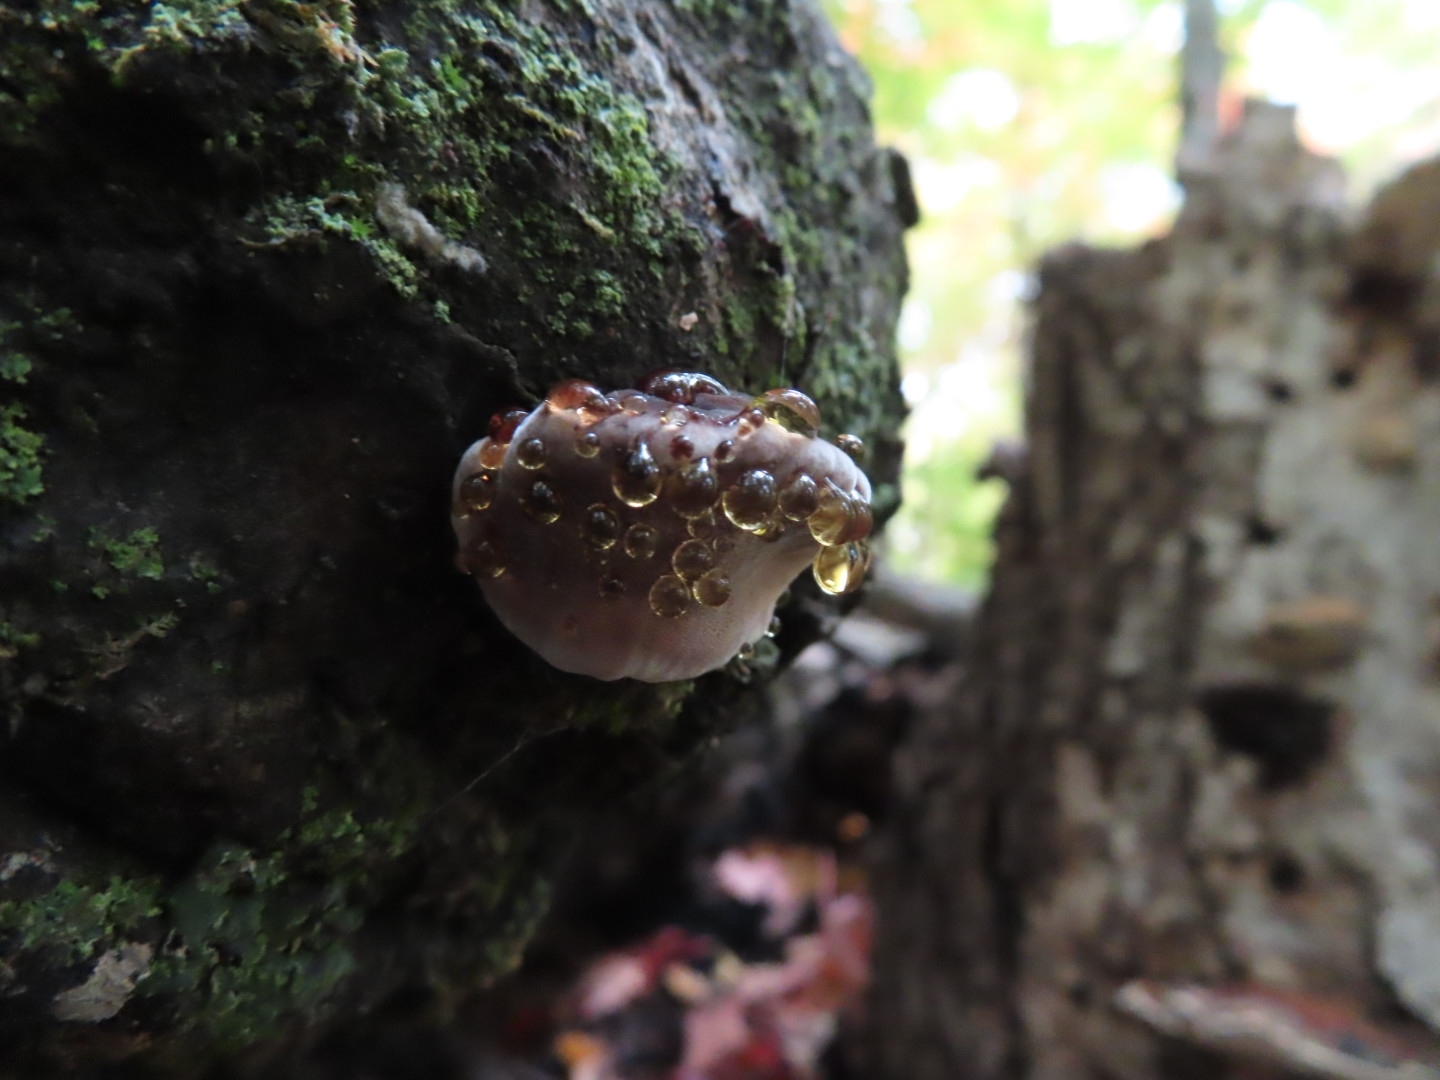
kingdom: Fungi
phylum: Basidiomycota
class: Agaricomycetes
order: Polyporales
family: Ischnodermataceae
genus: Ischnoderma
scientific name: Ischnoderma resinosum
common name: Resinous polypore
